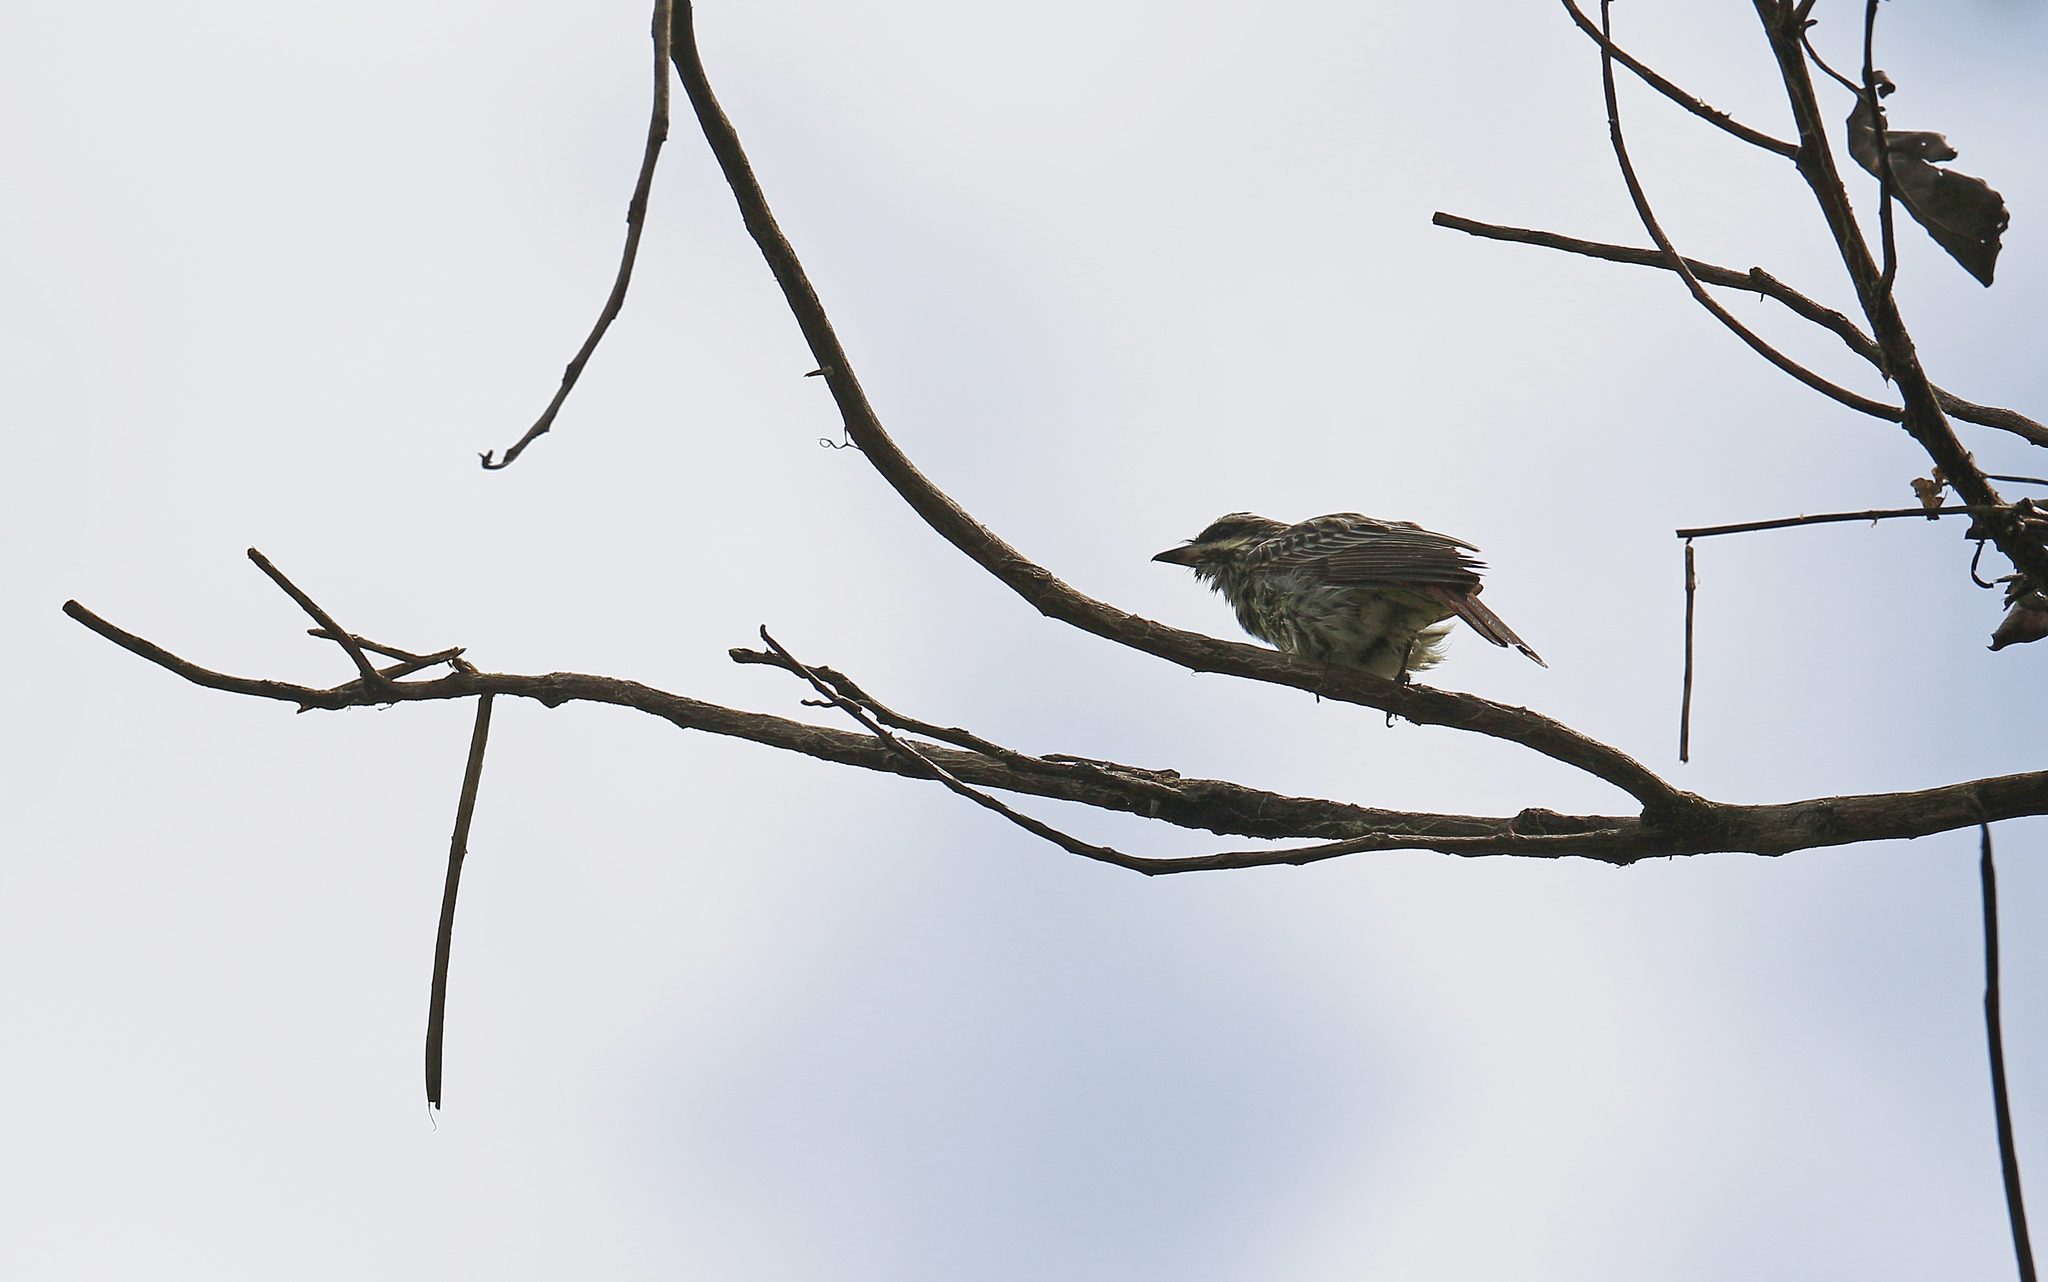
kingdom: Animalia
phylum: Chordata
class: Aves
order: Passeriformes
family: Tyrannidae
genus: Myiodynastes
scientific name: Myiodynastes maculatus
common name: Streaked flycatcher
